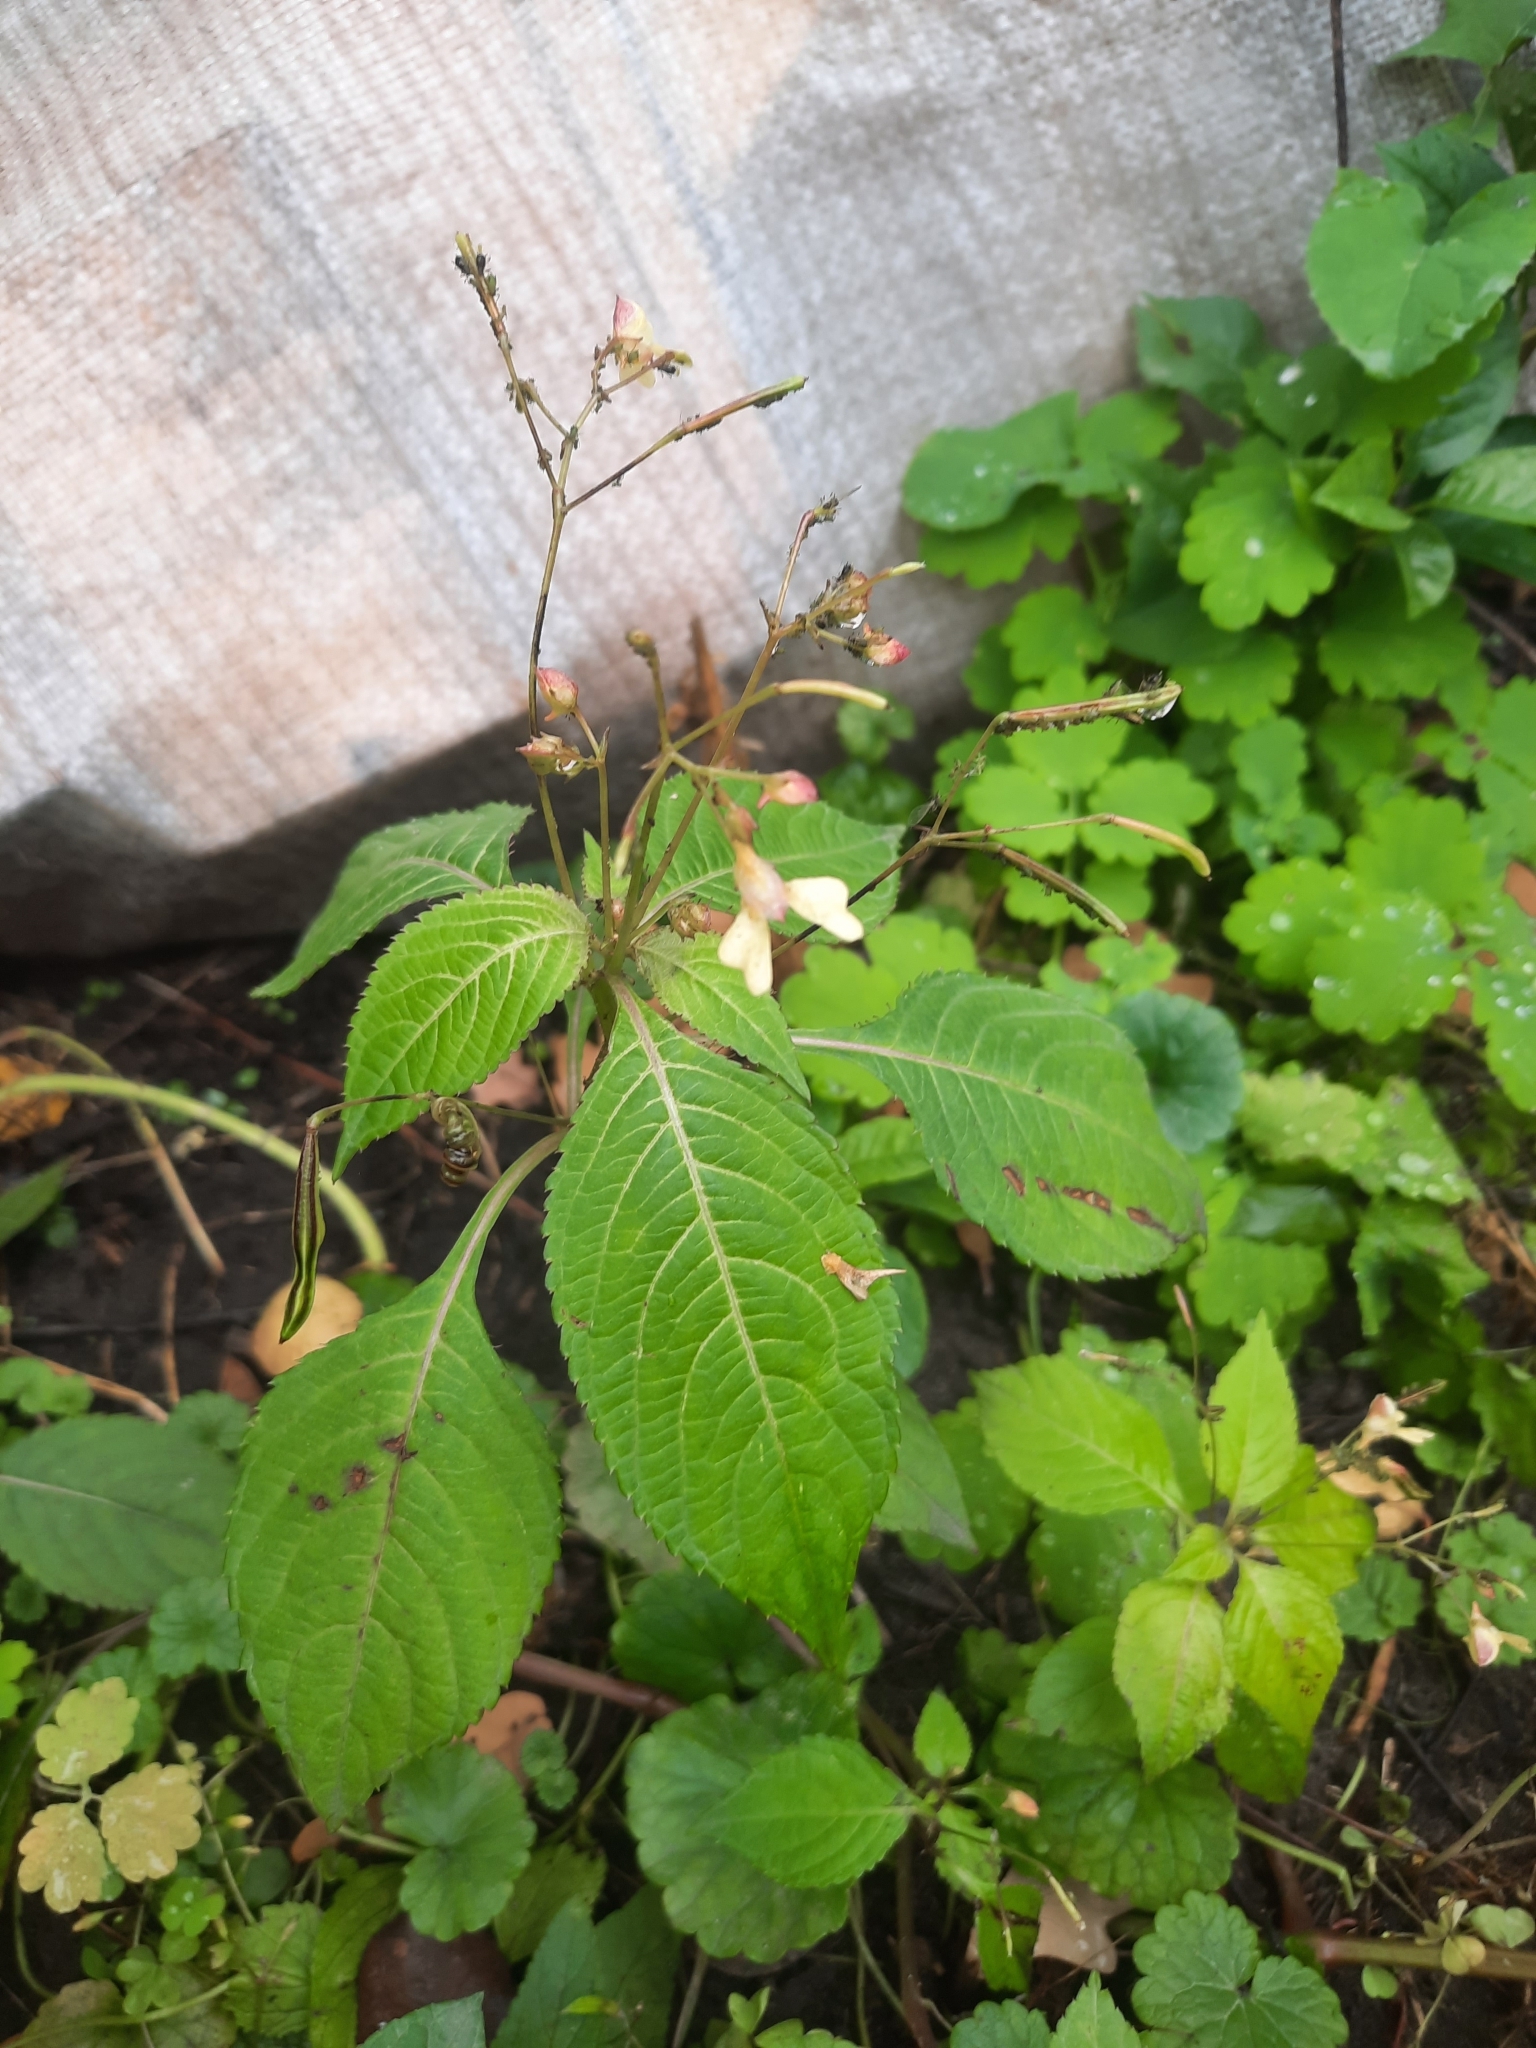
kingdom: Plantae
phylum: Tracheophyta
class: Magnoliopsida
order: Ericales
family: Balsaminaceae
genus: Impatiens
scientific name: Impatiens parviflora
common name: Small balsam
